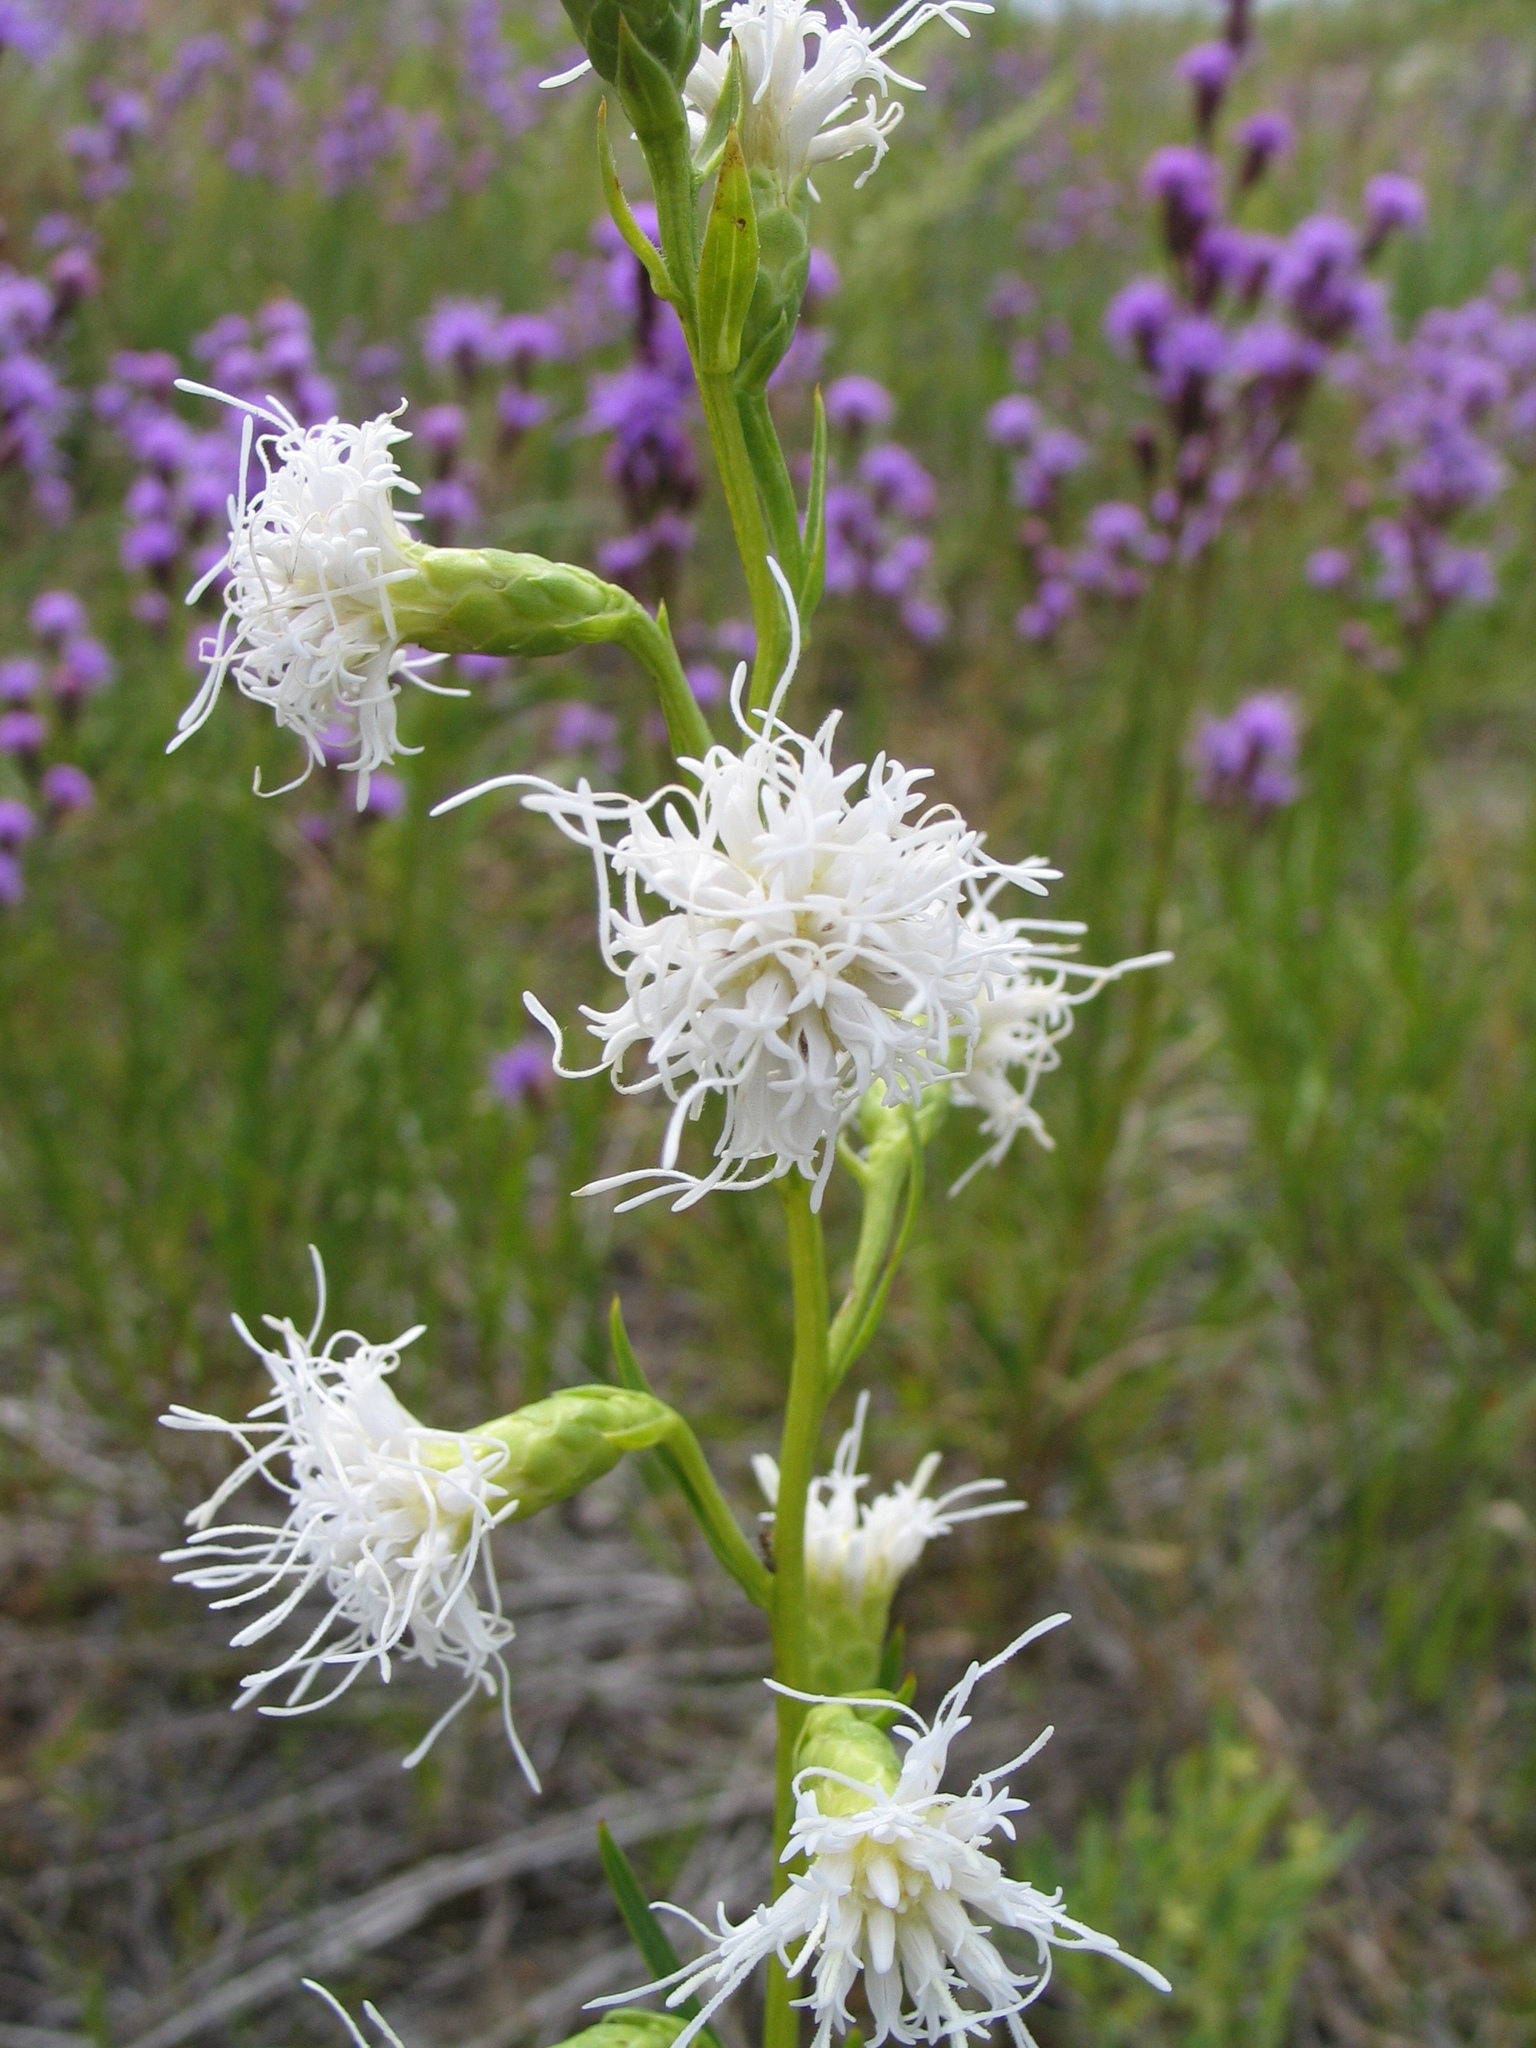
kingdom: Plantae
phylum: Tracheophyta
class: Magnoliopsida
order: Asterales
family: Asteraceae
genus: Liatris
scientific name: Liatris cylindracea
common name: Few-head blazingstar
